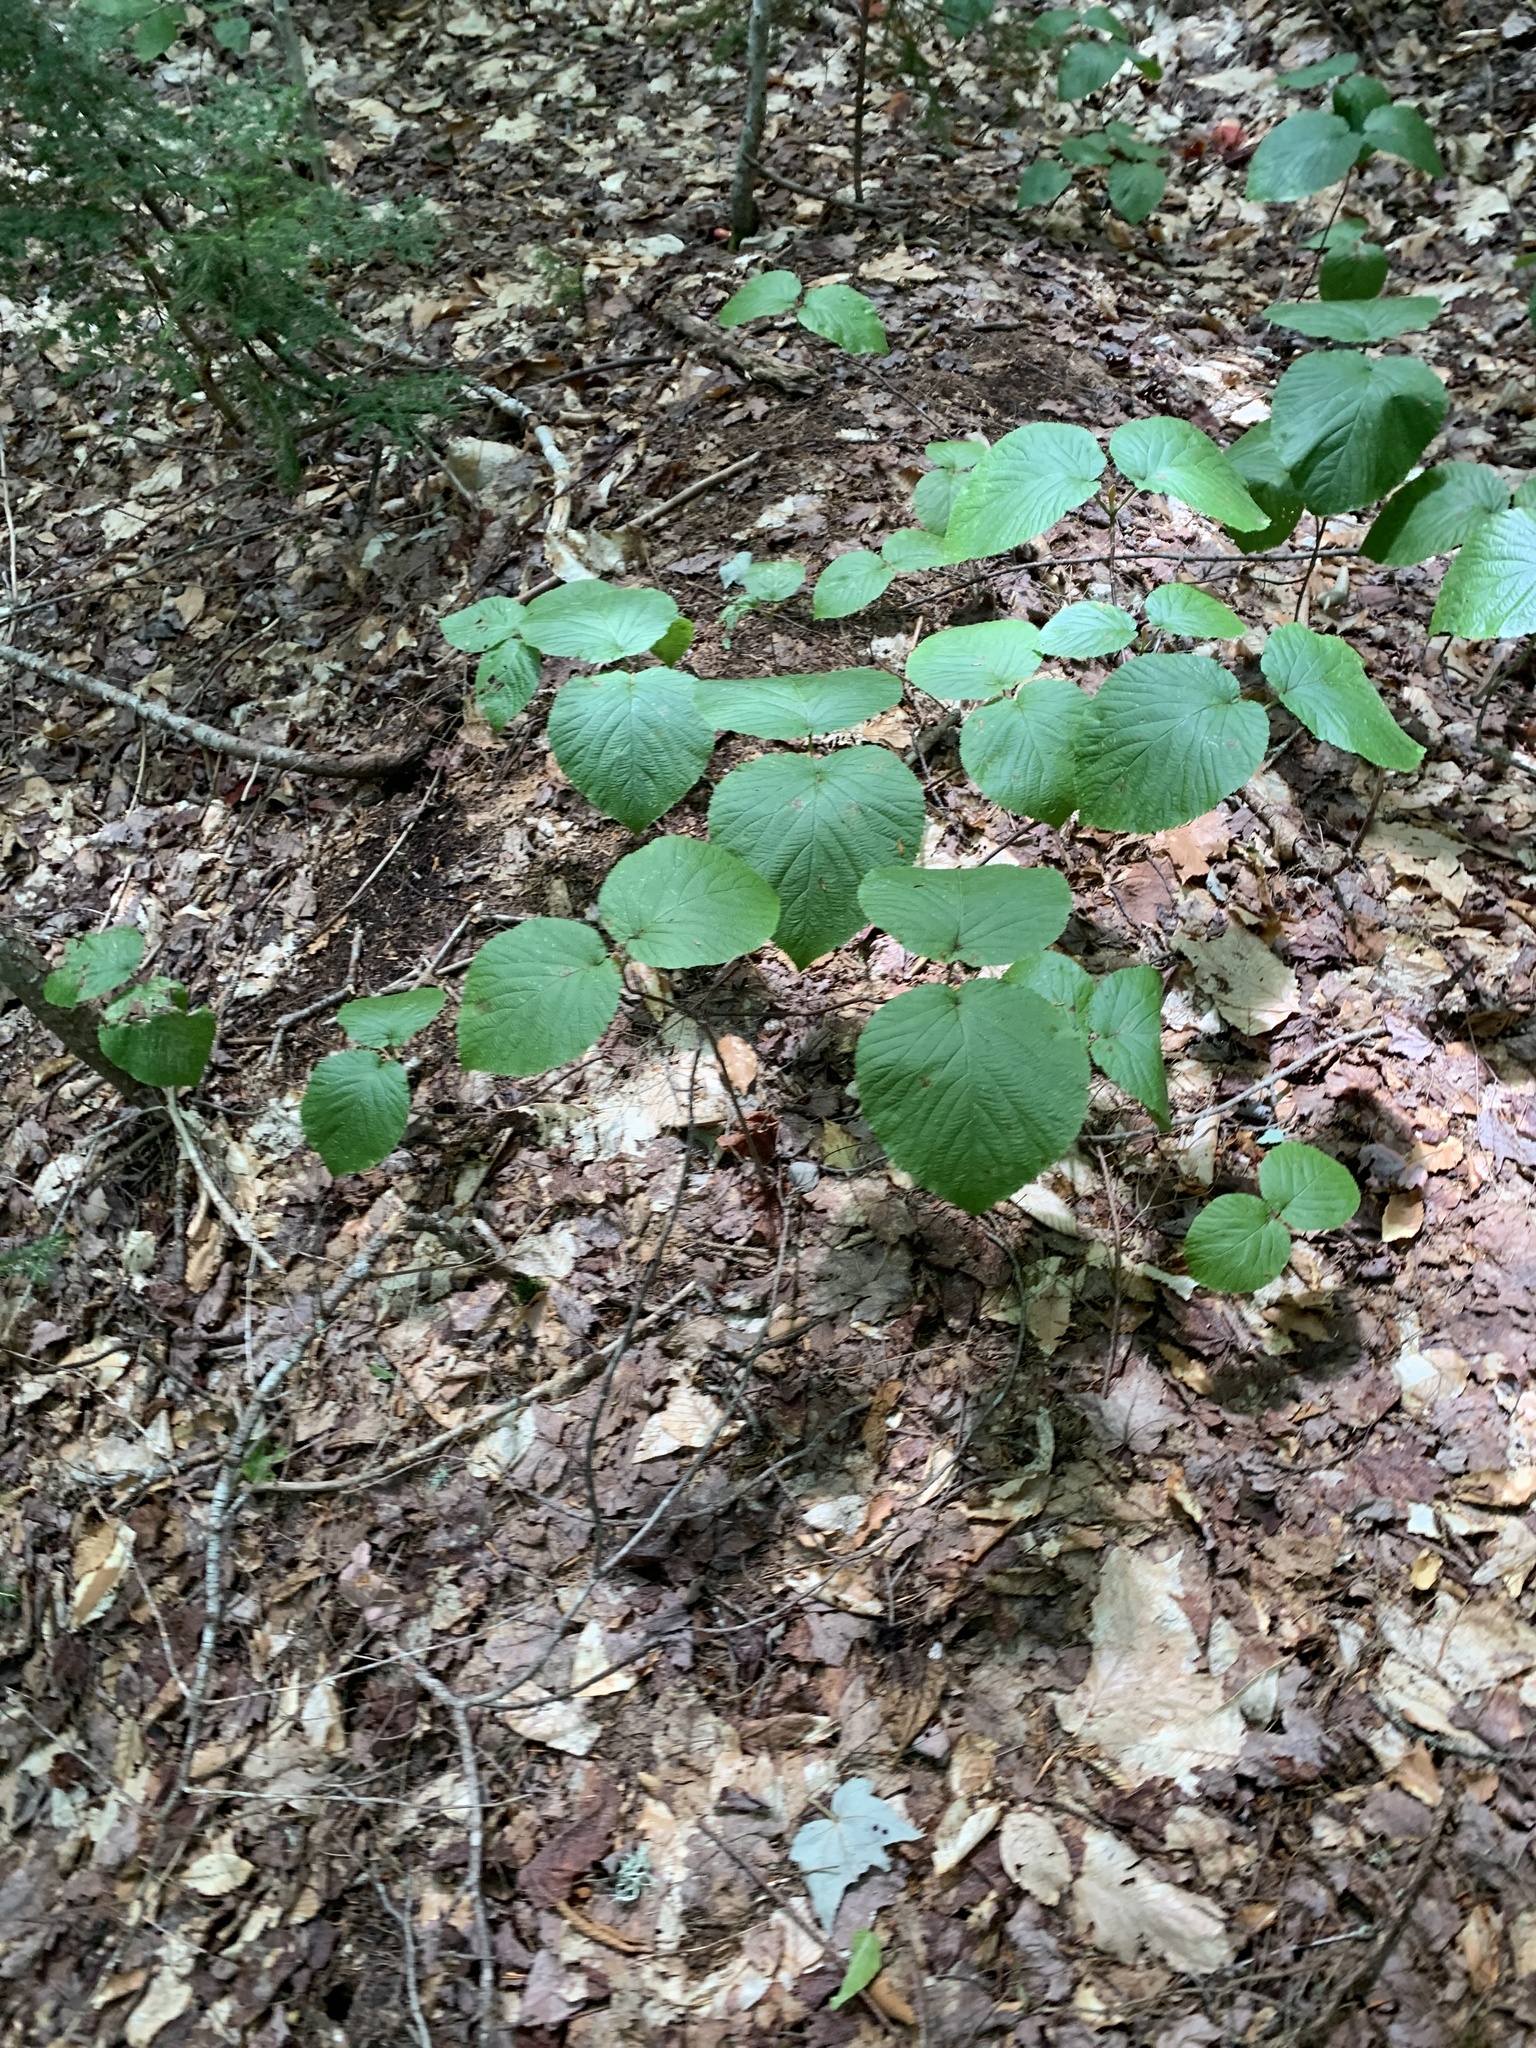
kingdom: Plantae
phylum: Tracheophyta
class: Magnoliopsida
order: Dipsacales
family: Viburnaceae
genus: Viburnum
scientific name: Viburnum lantanoides
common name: Hobblebush
